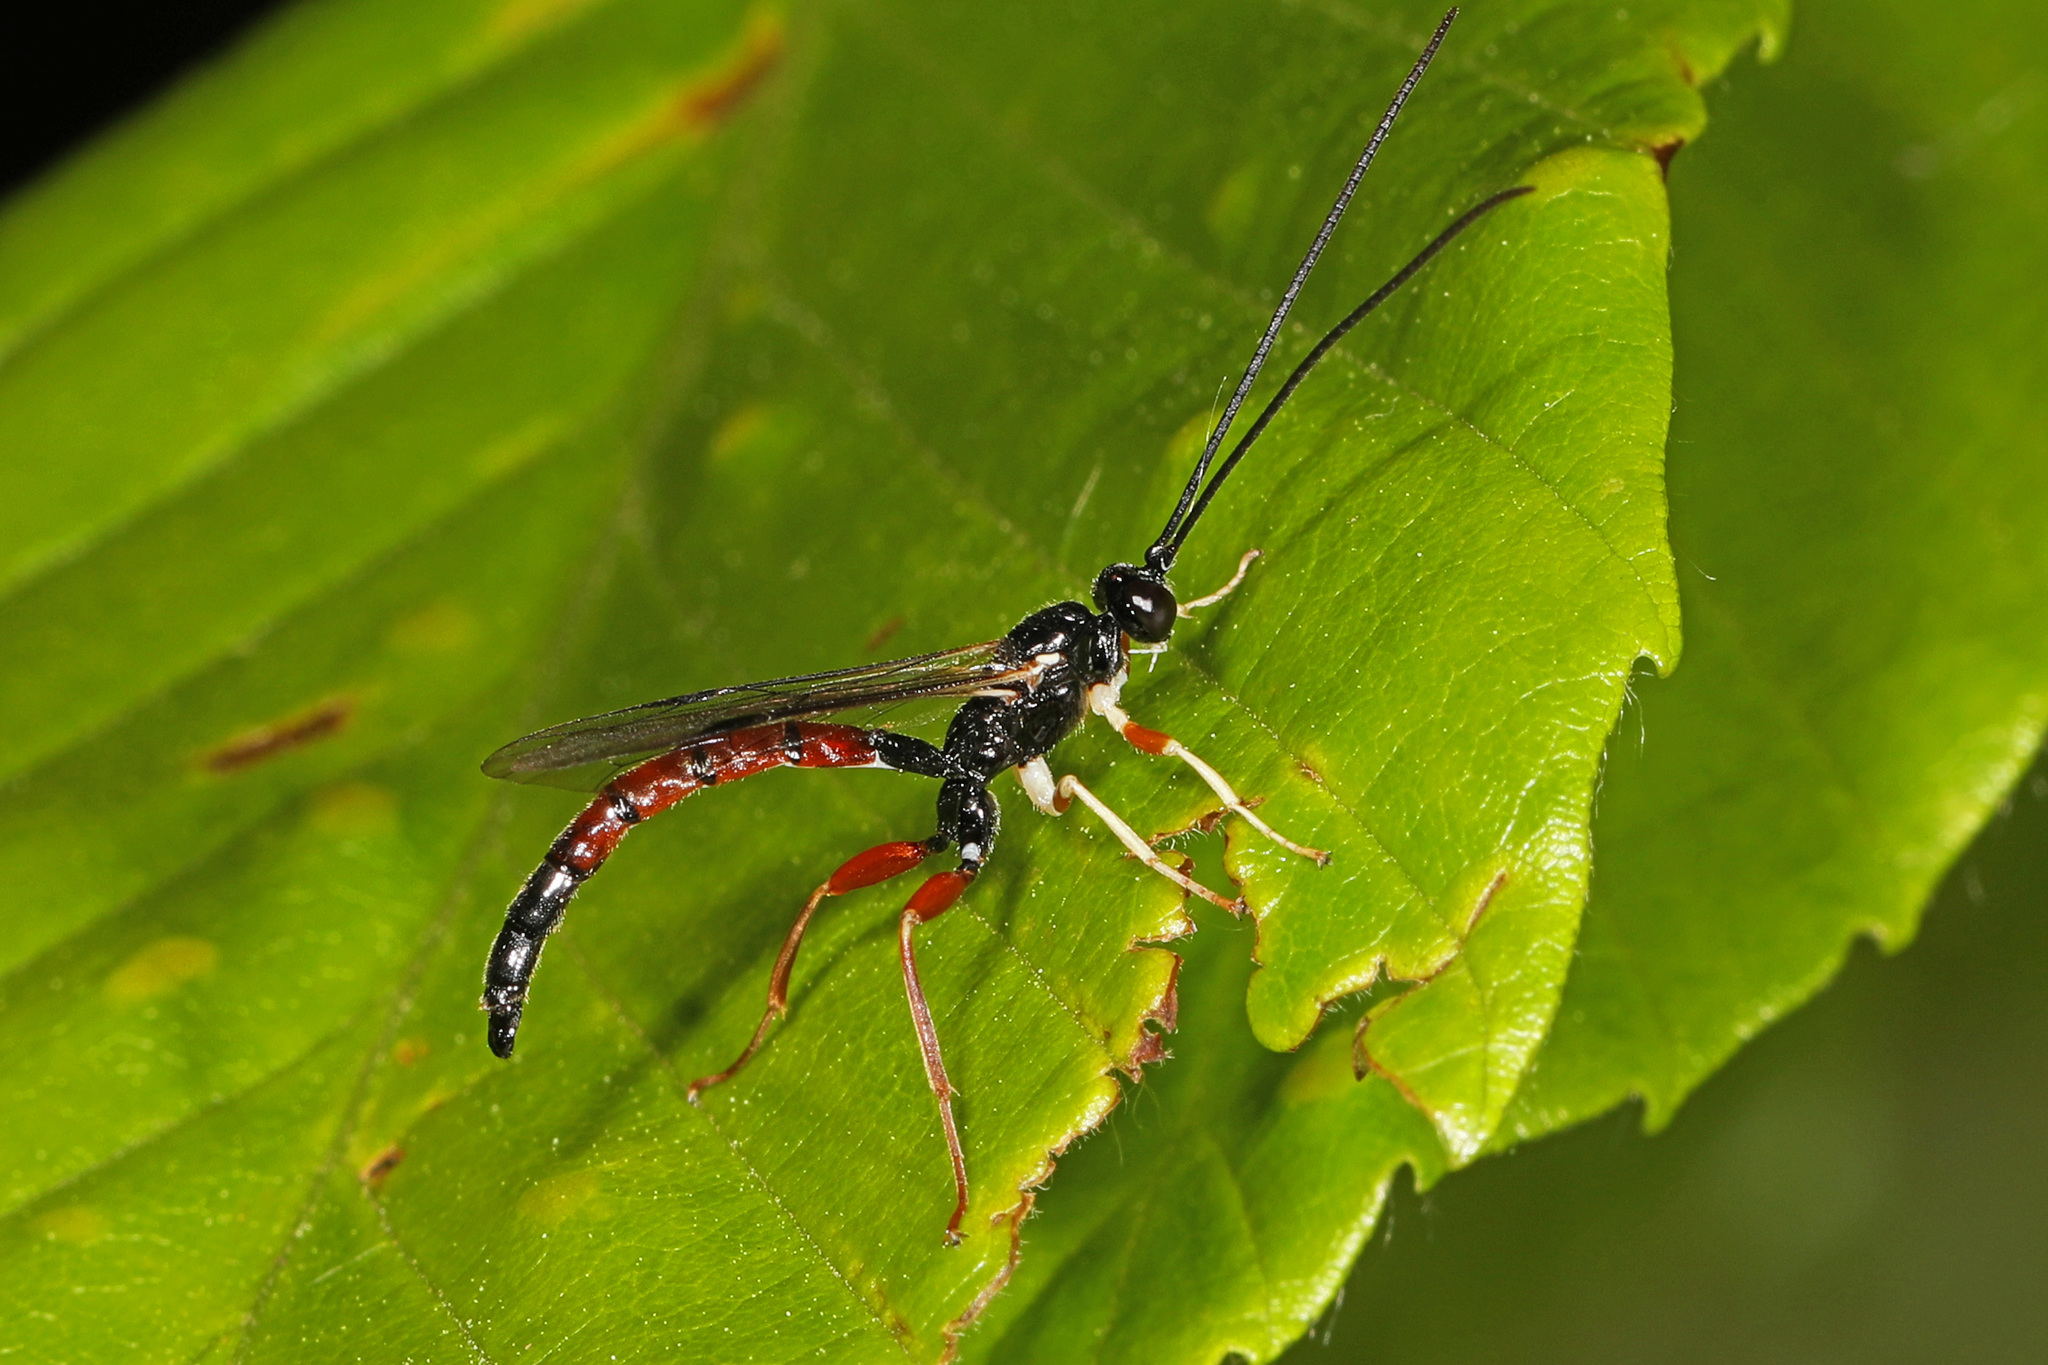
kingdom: Animalia
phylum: Arthropoda
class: Insecta
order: Hymenoptera
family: Ichneumonidae
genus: Dolichomitus
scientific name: Dolichomitus irritator
